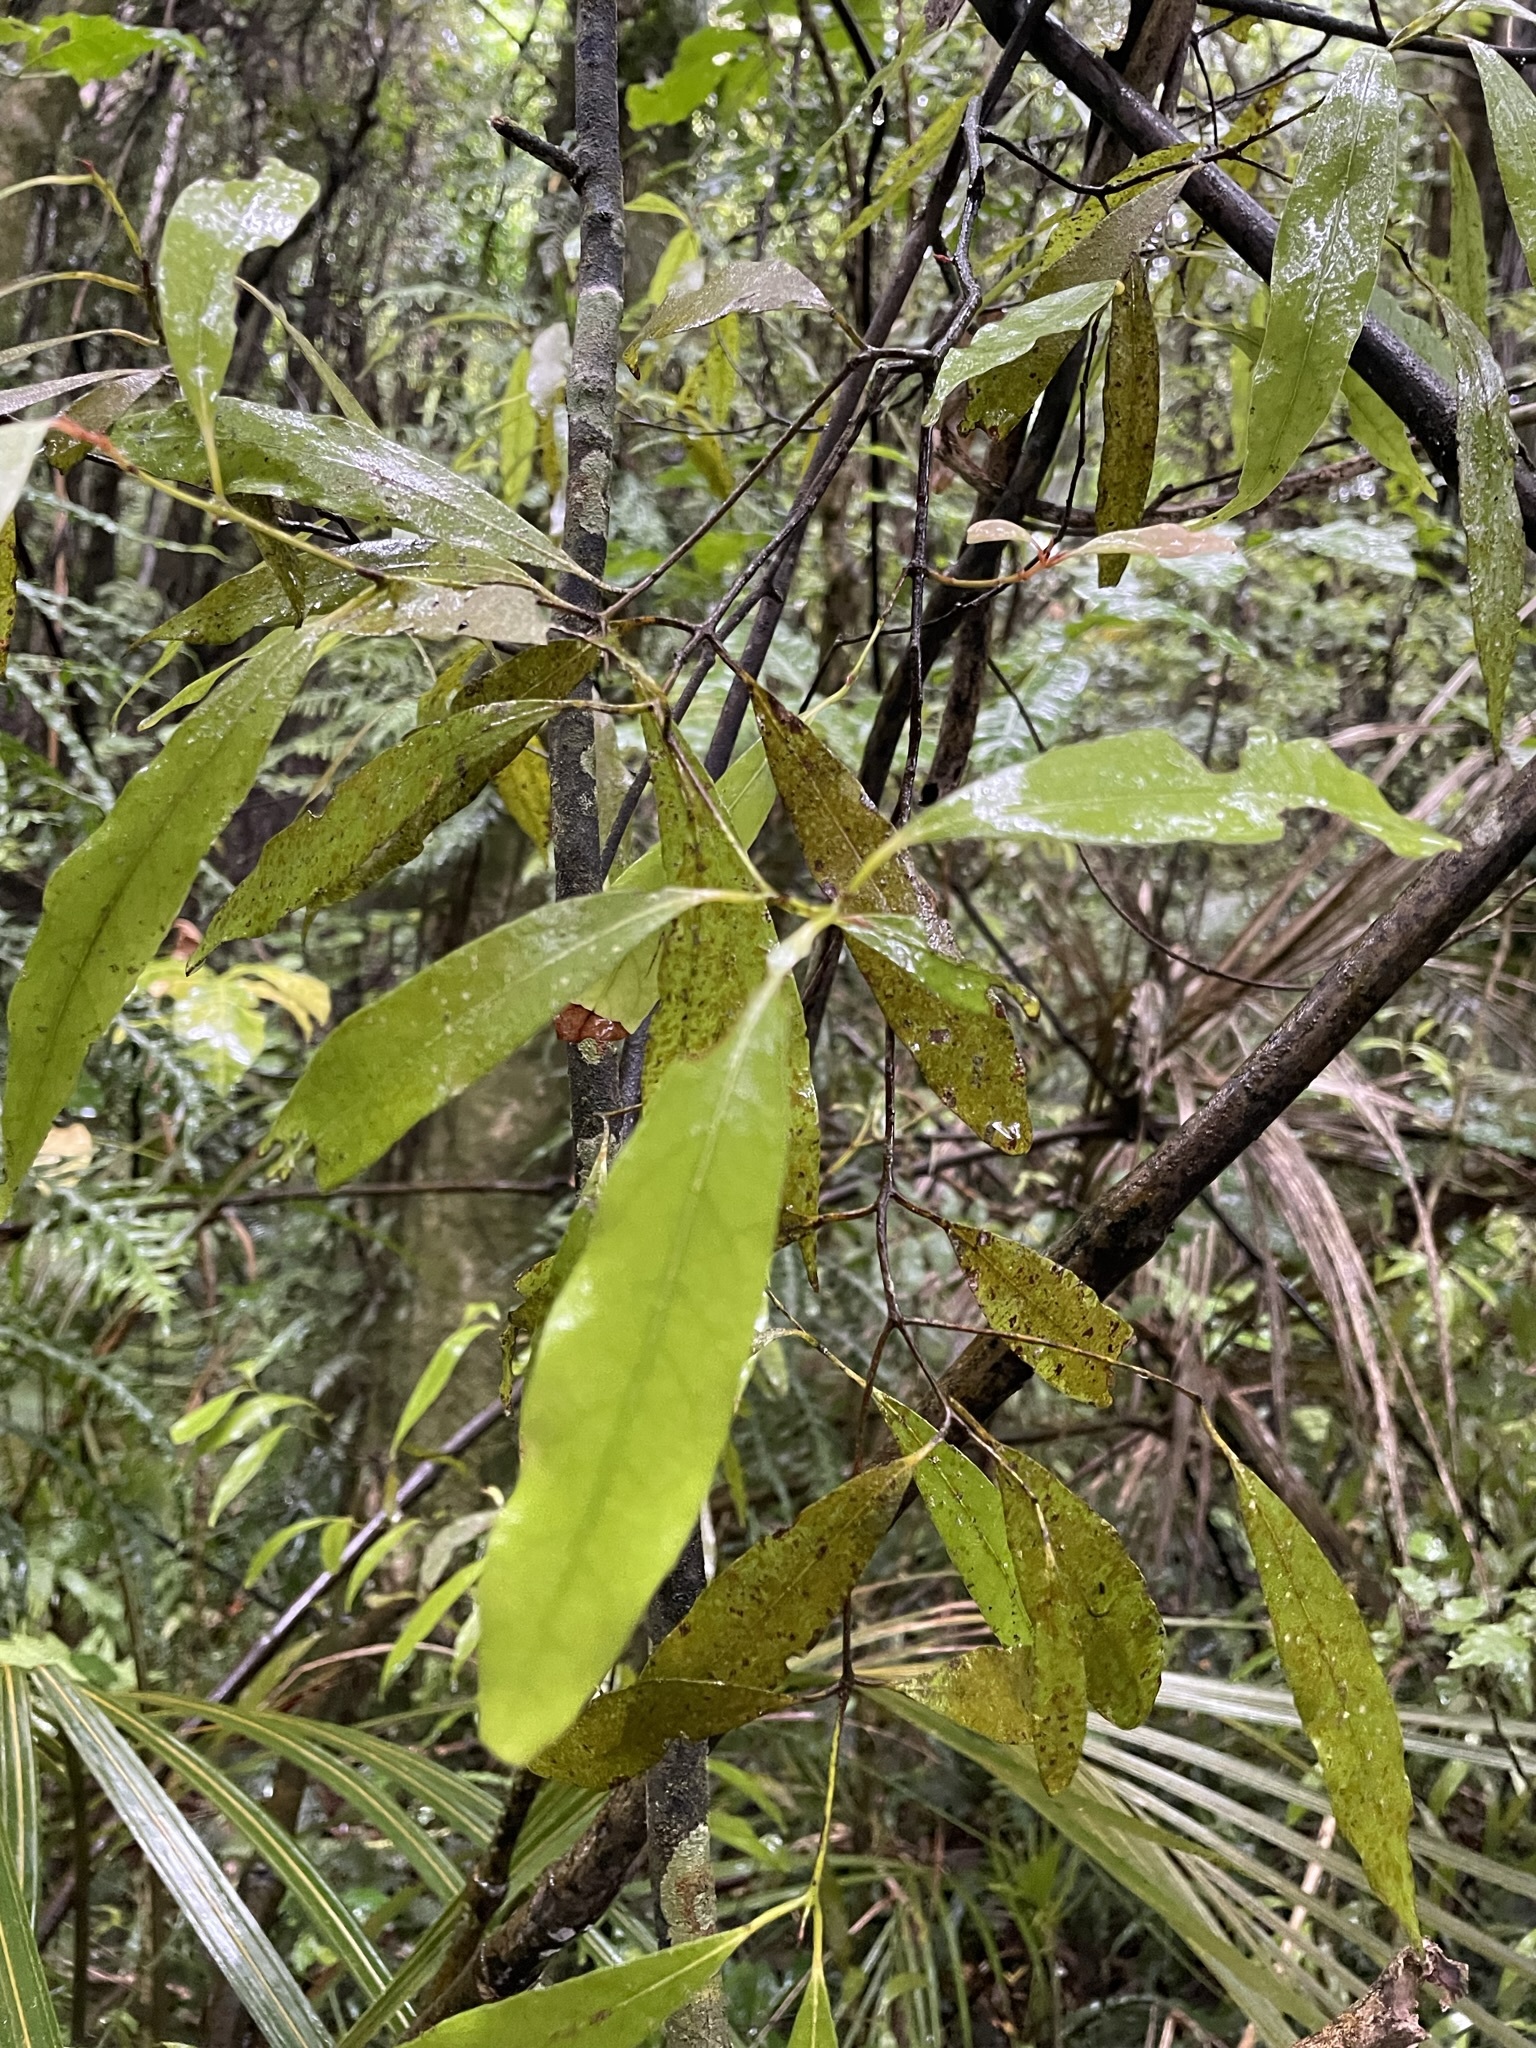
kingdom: Plantae
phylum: Tracheophyta
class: Magnoliopsida
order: Laurales
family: Lauraceae
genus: Beilschmiedia
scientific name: Beilschmiedia tawa
